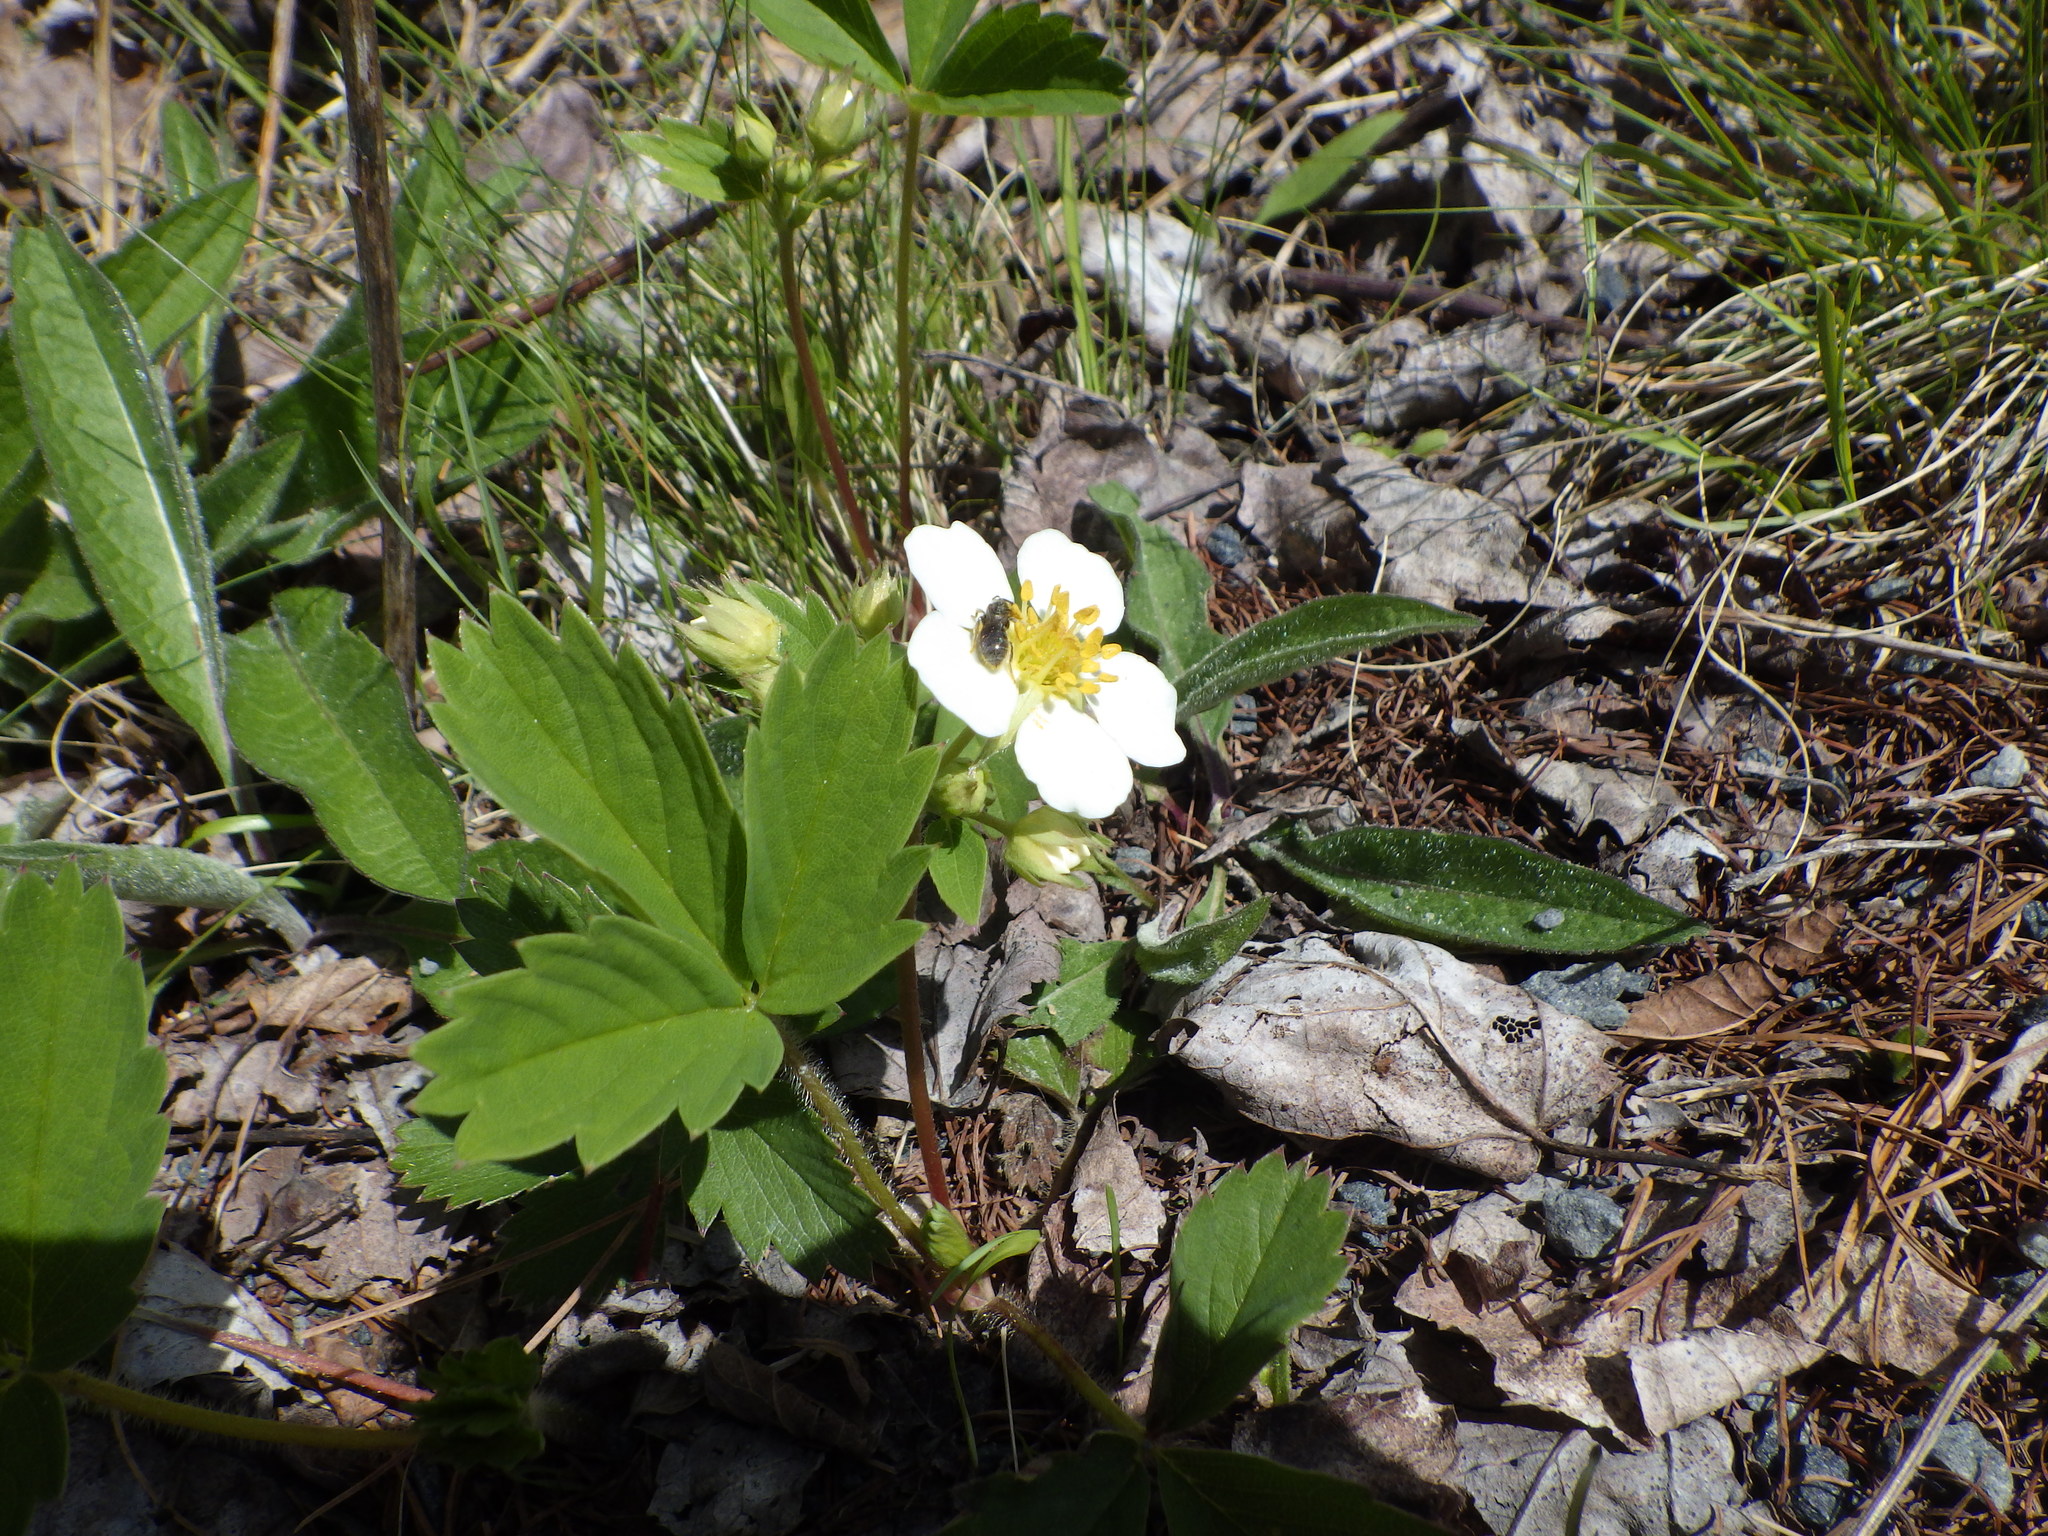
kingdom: Plantae
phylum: Tracheophyta
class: Magnoliopsida
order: Rosales
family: Rosaceae
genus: Fragaria
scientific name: Fragaria virginiana
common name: Thickleaved wild strawberry
